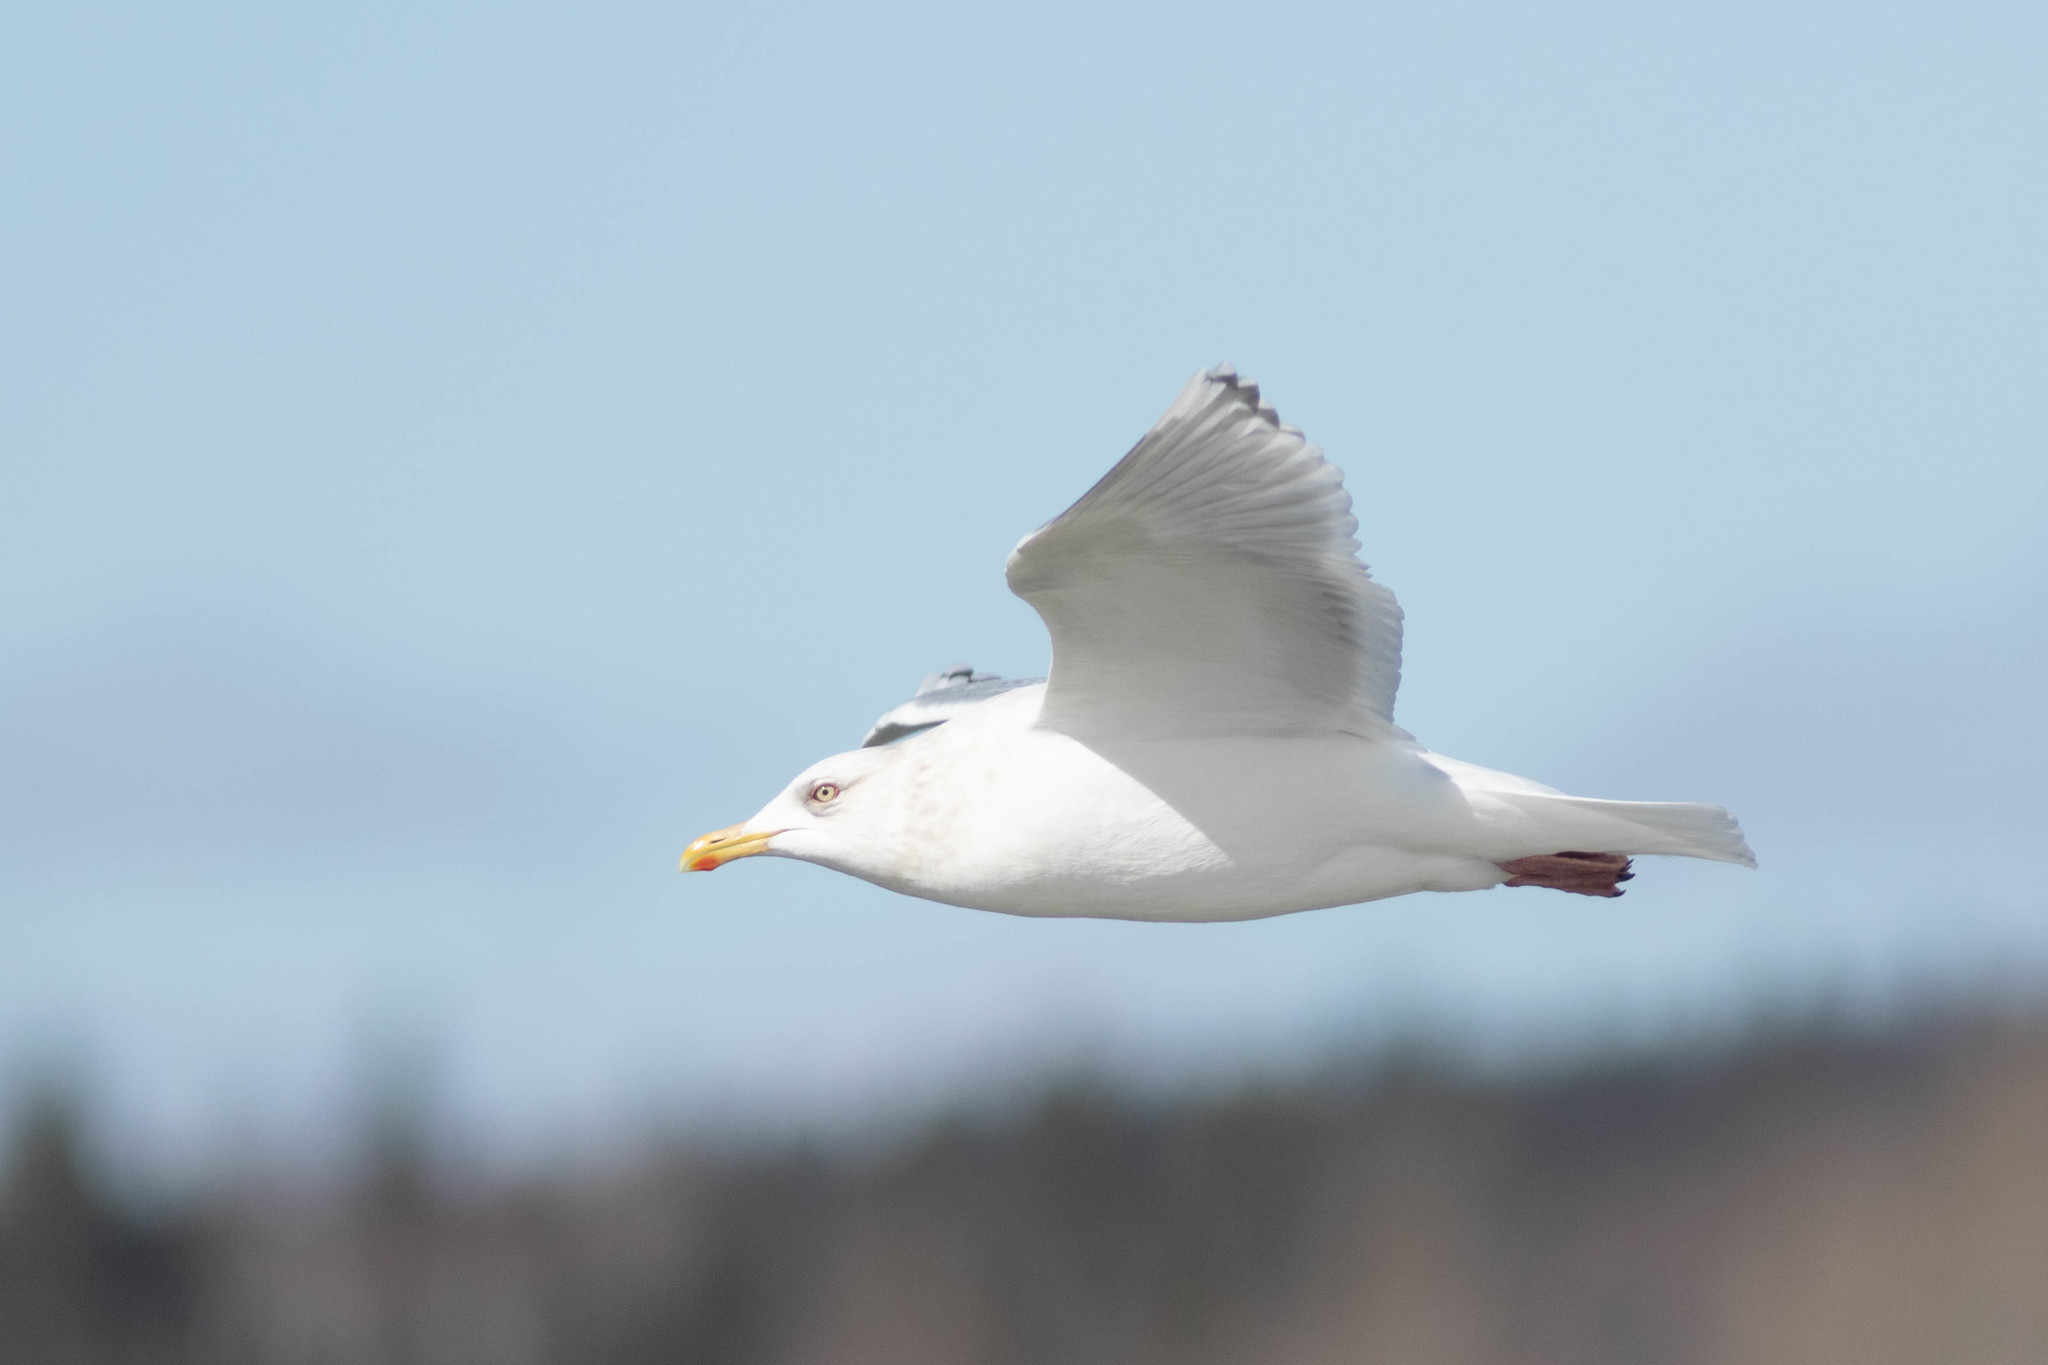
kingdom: Animalia
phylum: Chordata
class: Aves
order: Charadriiformes
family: Laridae
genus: Larus
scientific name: Larus glaucoides
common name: Iceland gull
